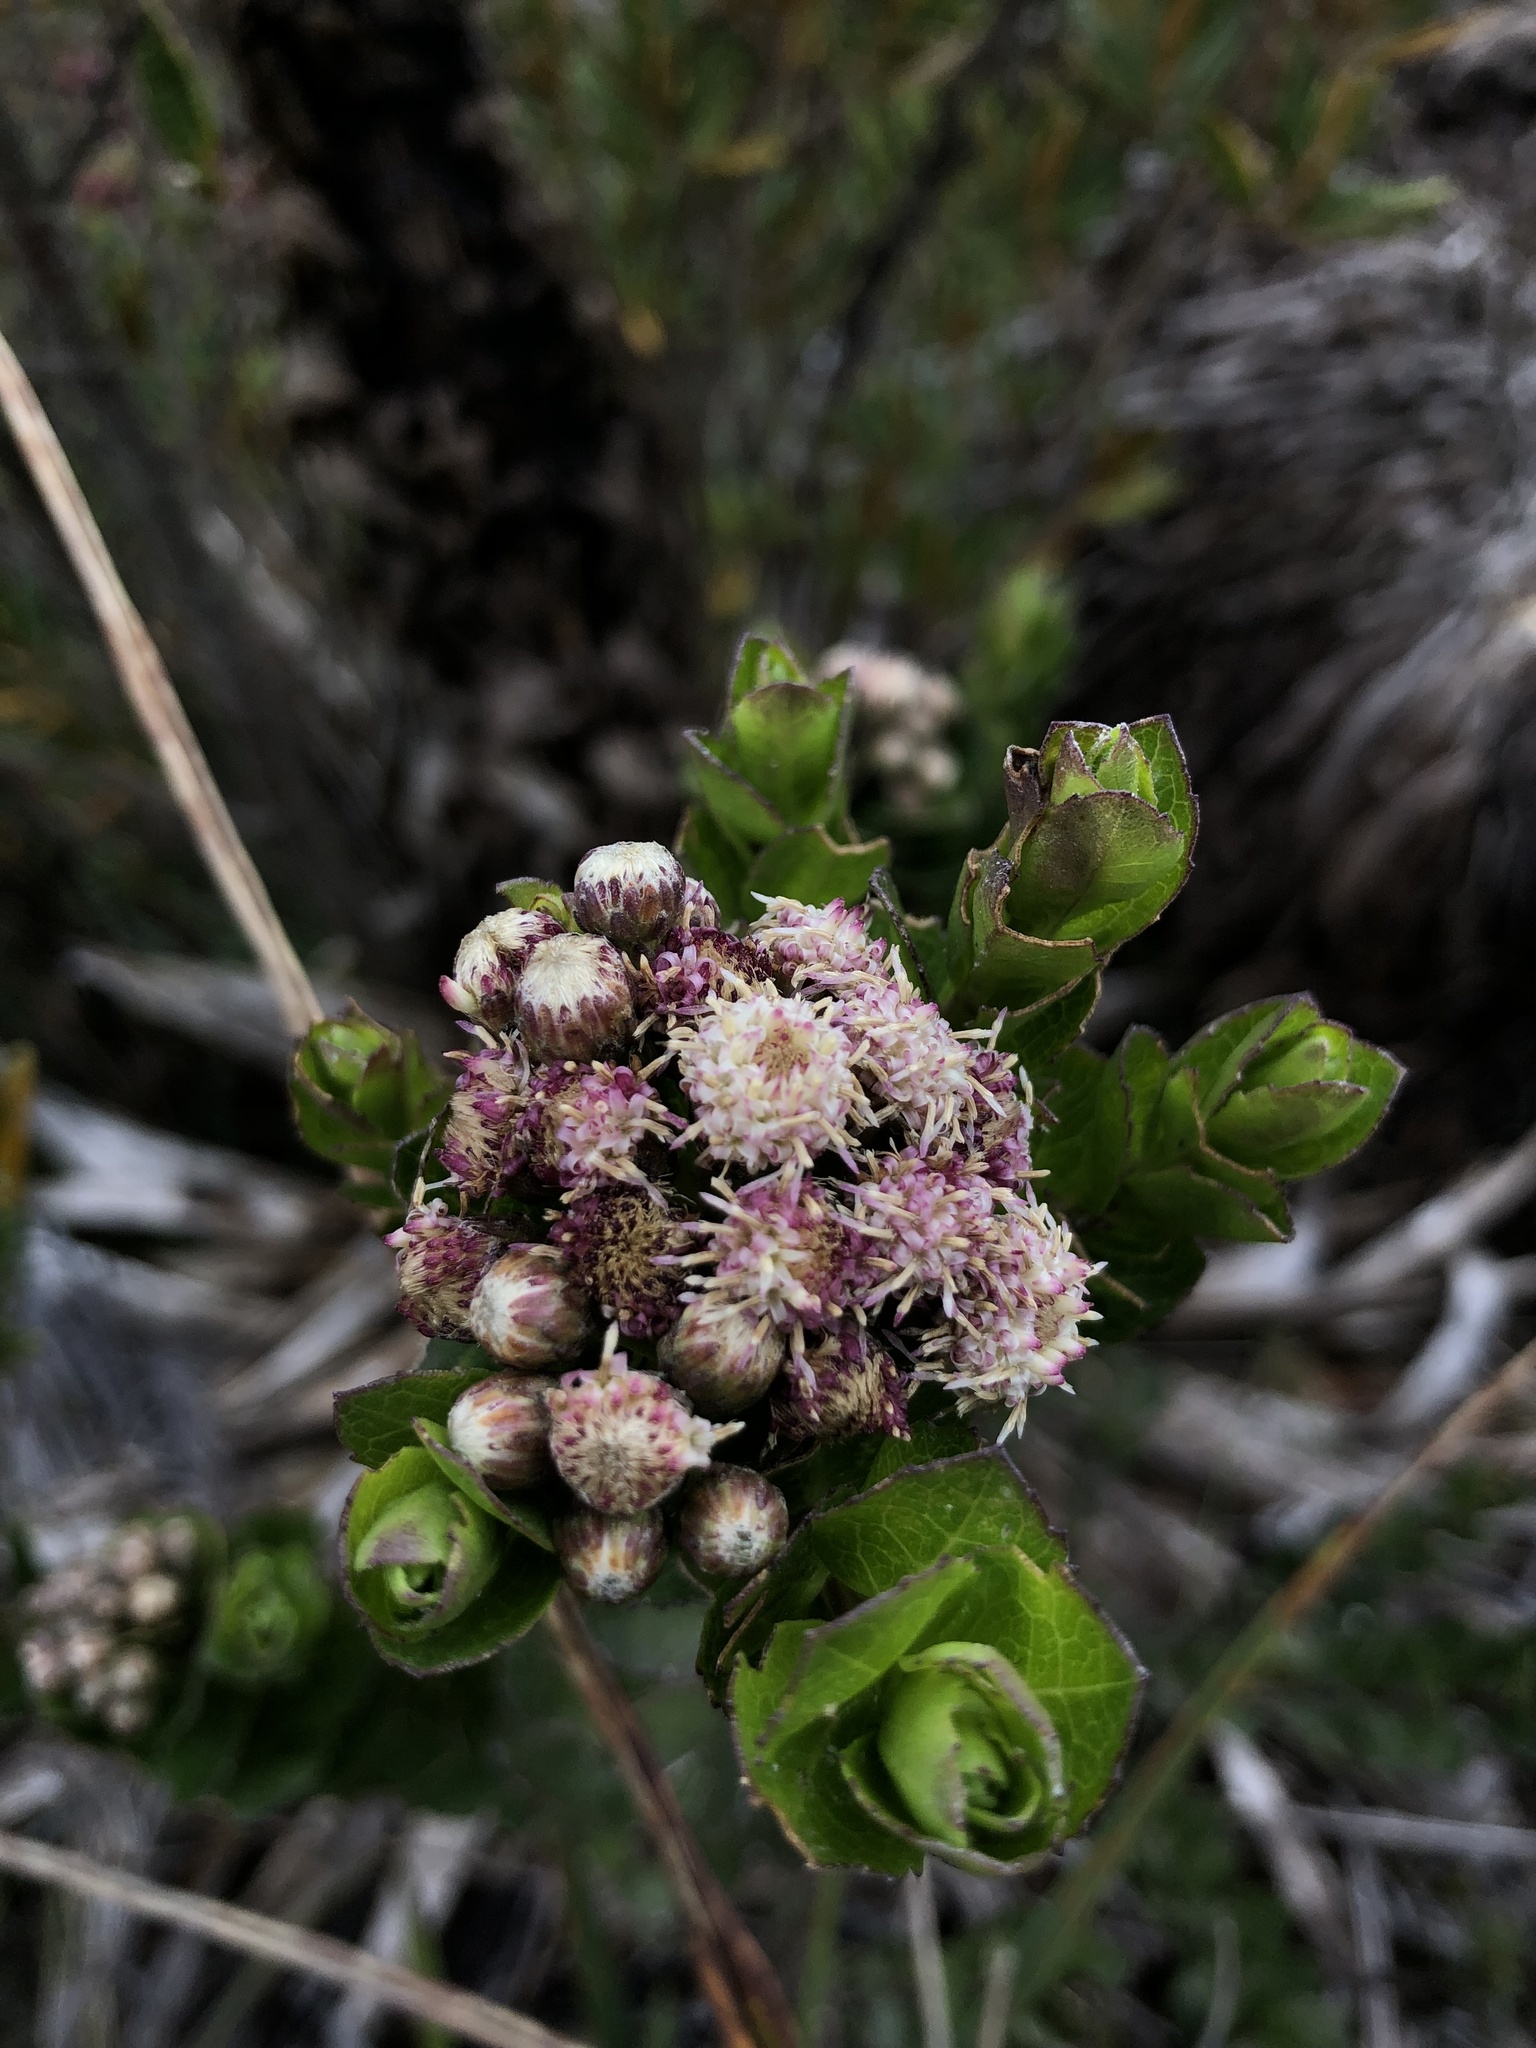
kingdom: Plantae
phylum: Tracheophyta
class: Magnoliopsida
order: Asterales
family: Asteraceae
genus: Baccharis
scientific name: Baccharis rupicola
